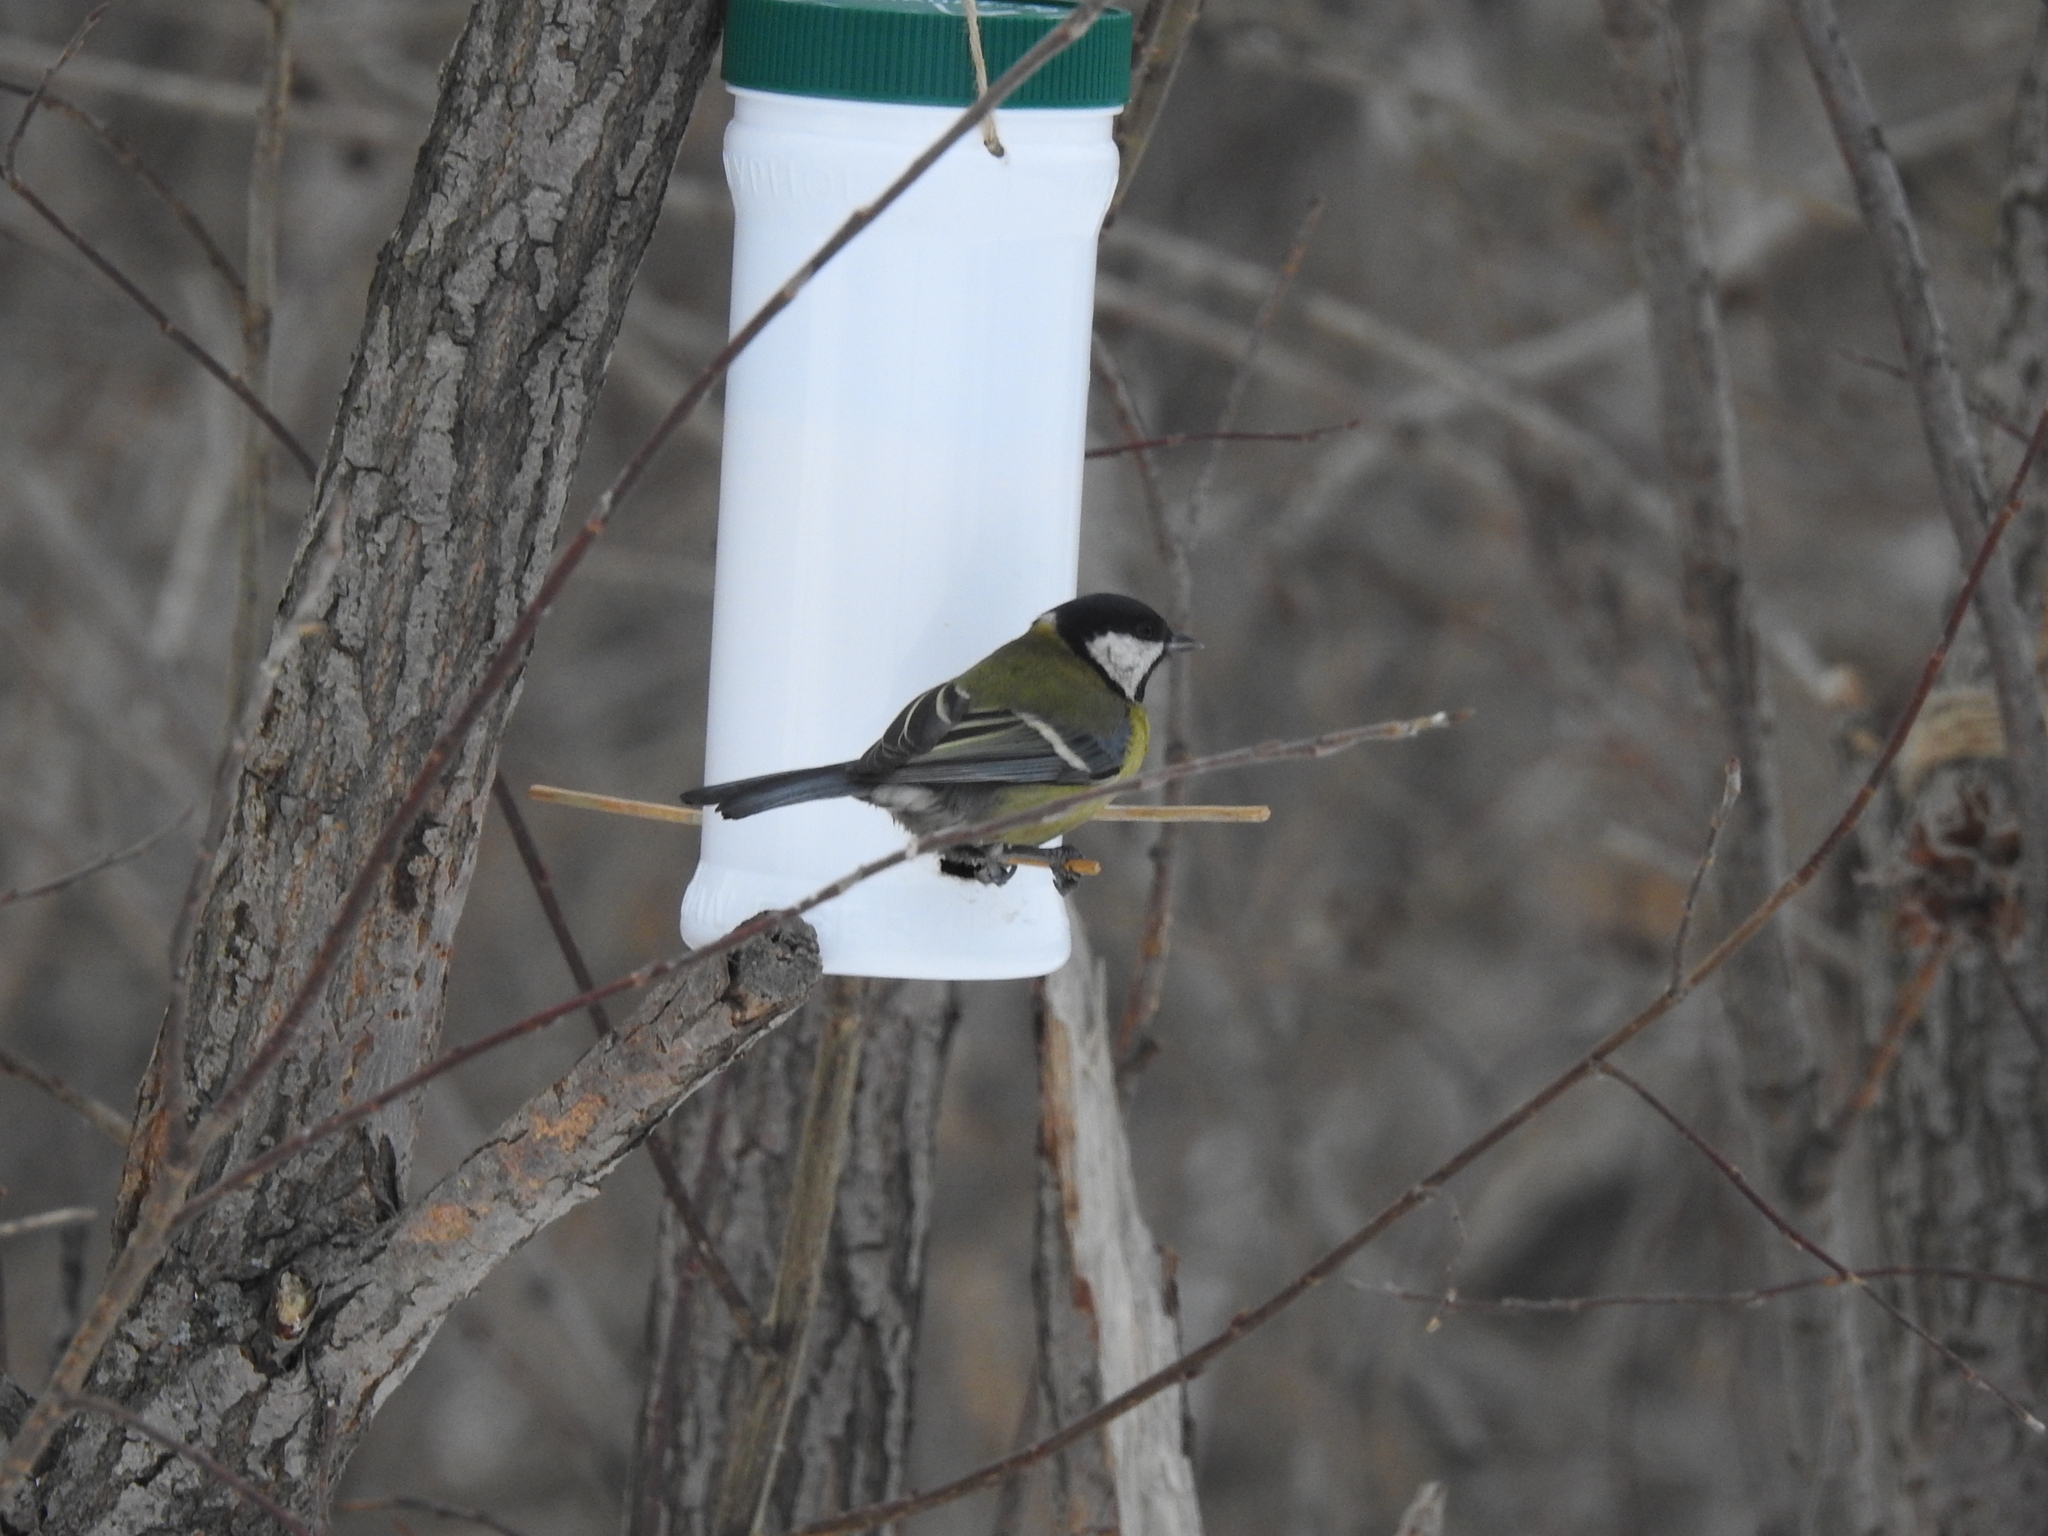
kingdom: Animalia
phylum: Chordata
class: Aves
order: Passeriformes
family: Paridae
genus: Parus
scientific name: Parus major
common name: Great tit
